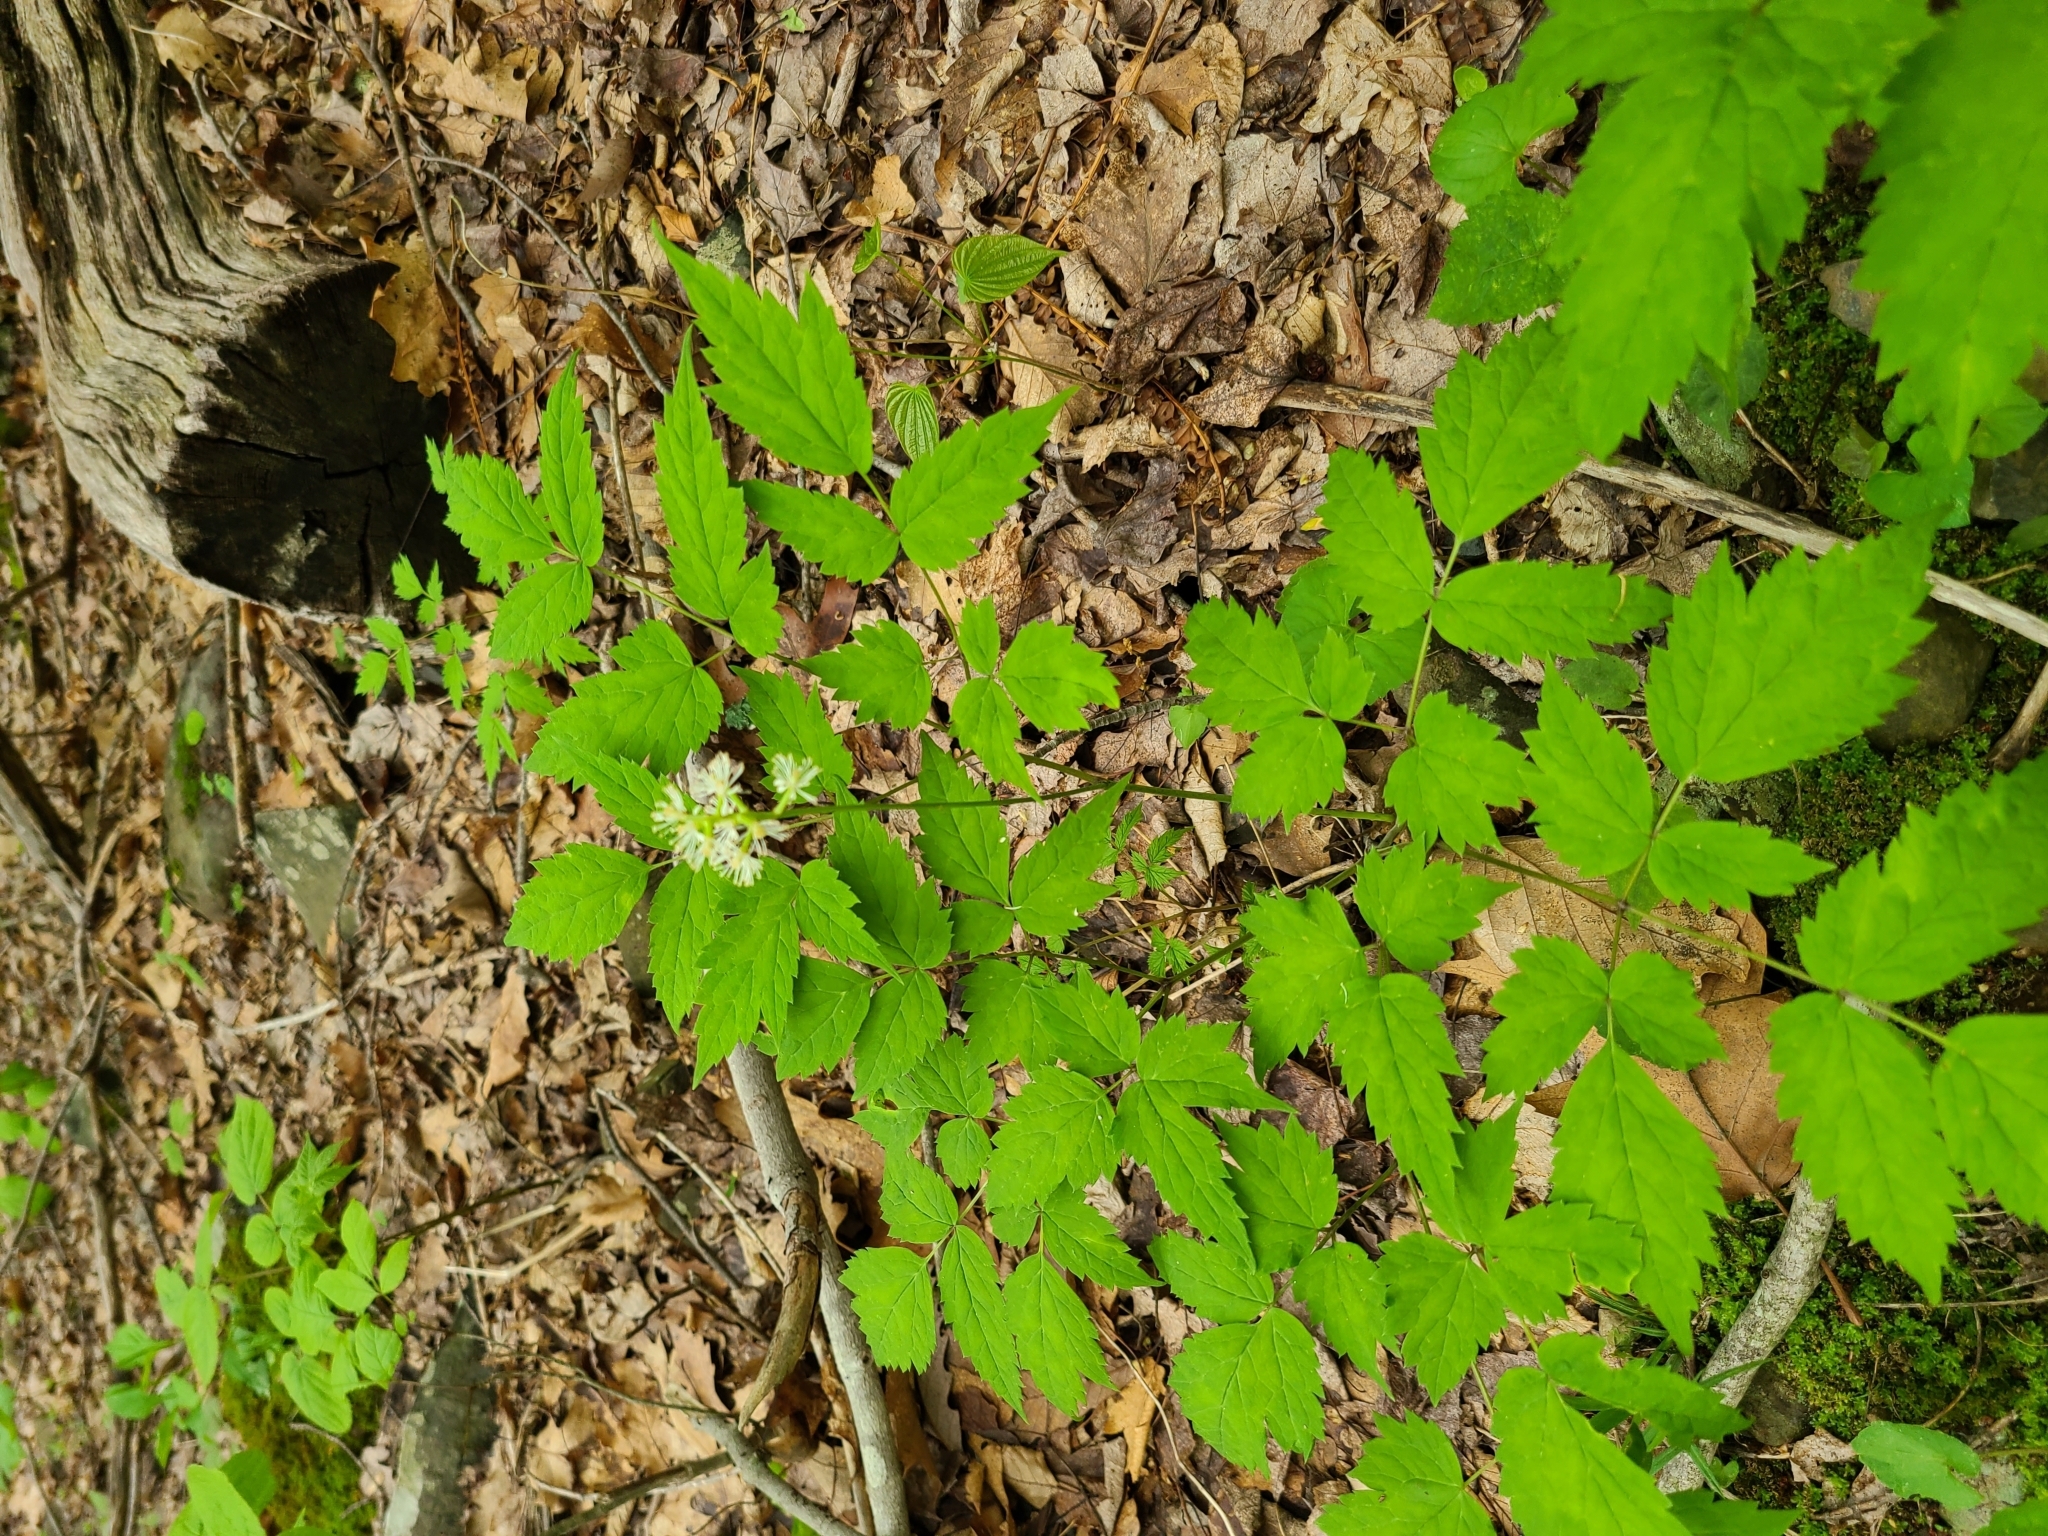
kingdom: Plantae
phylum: Tracheophyta
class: Magnoliopsida
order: Ranunculales
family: Ranunculaceae
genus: Actaea
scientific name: Actaea pachypoda
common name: Doll's-eyes
